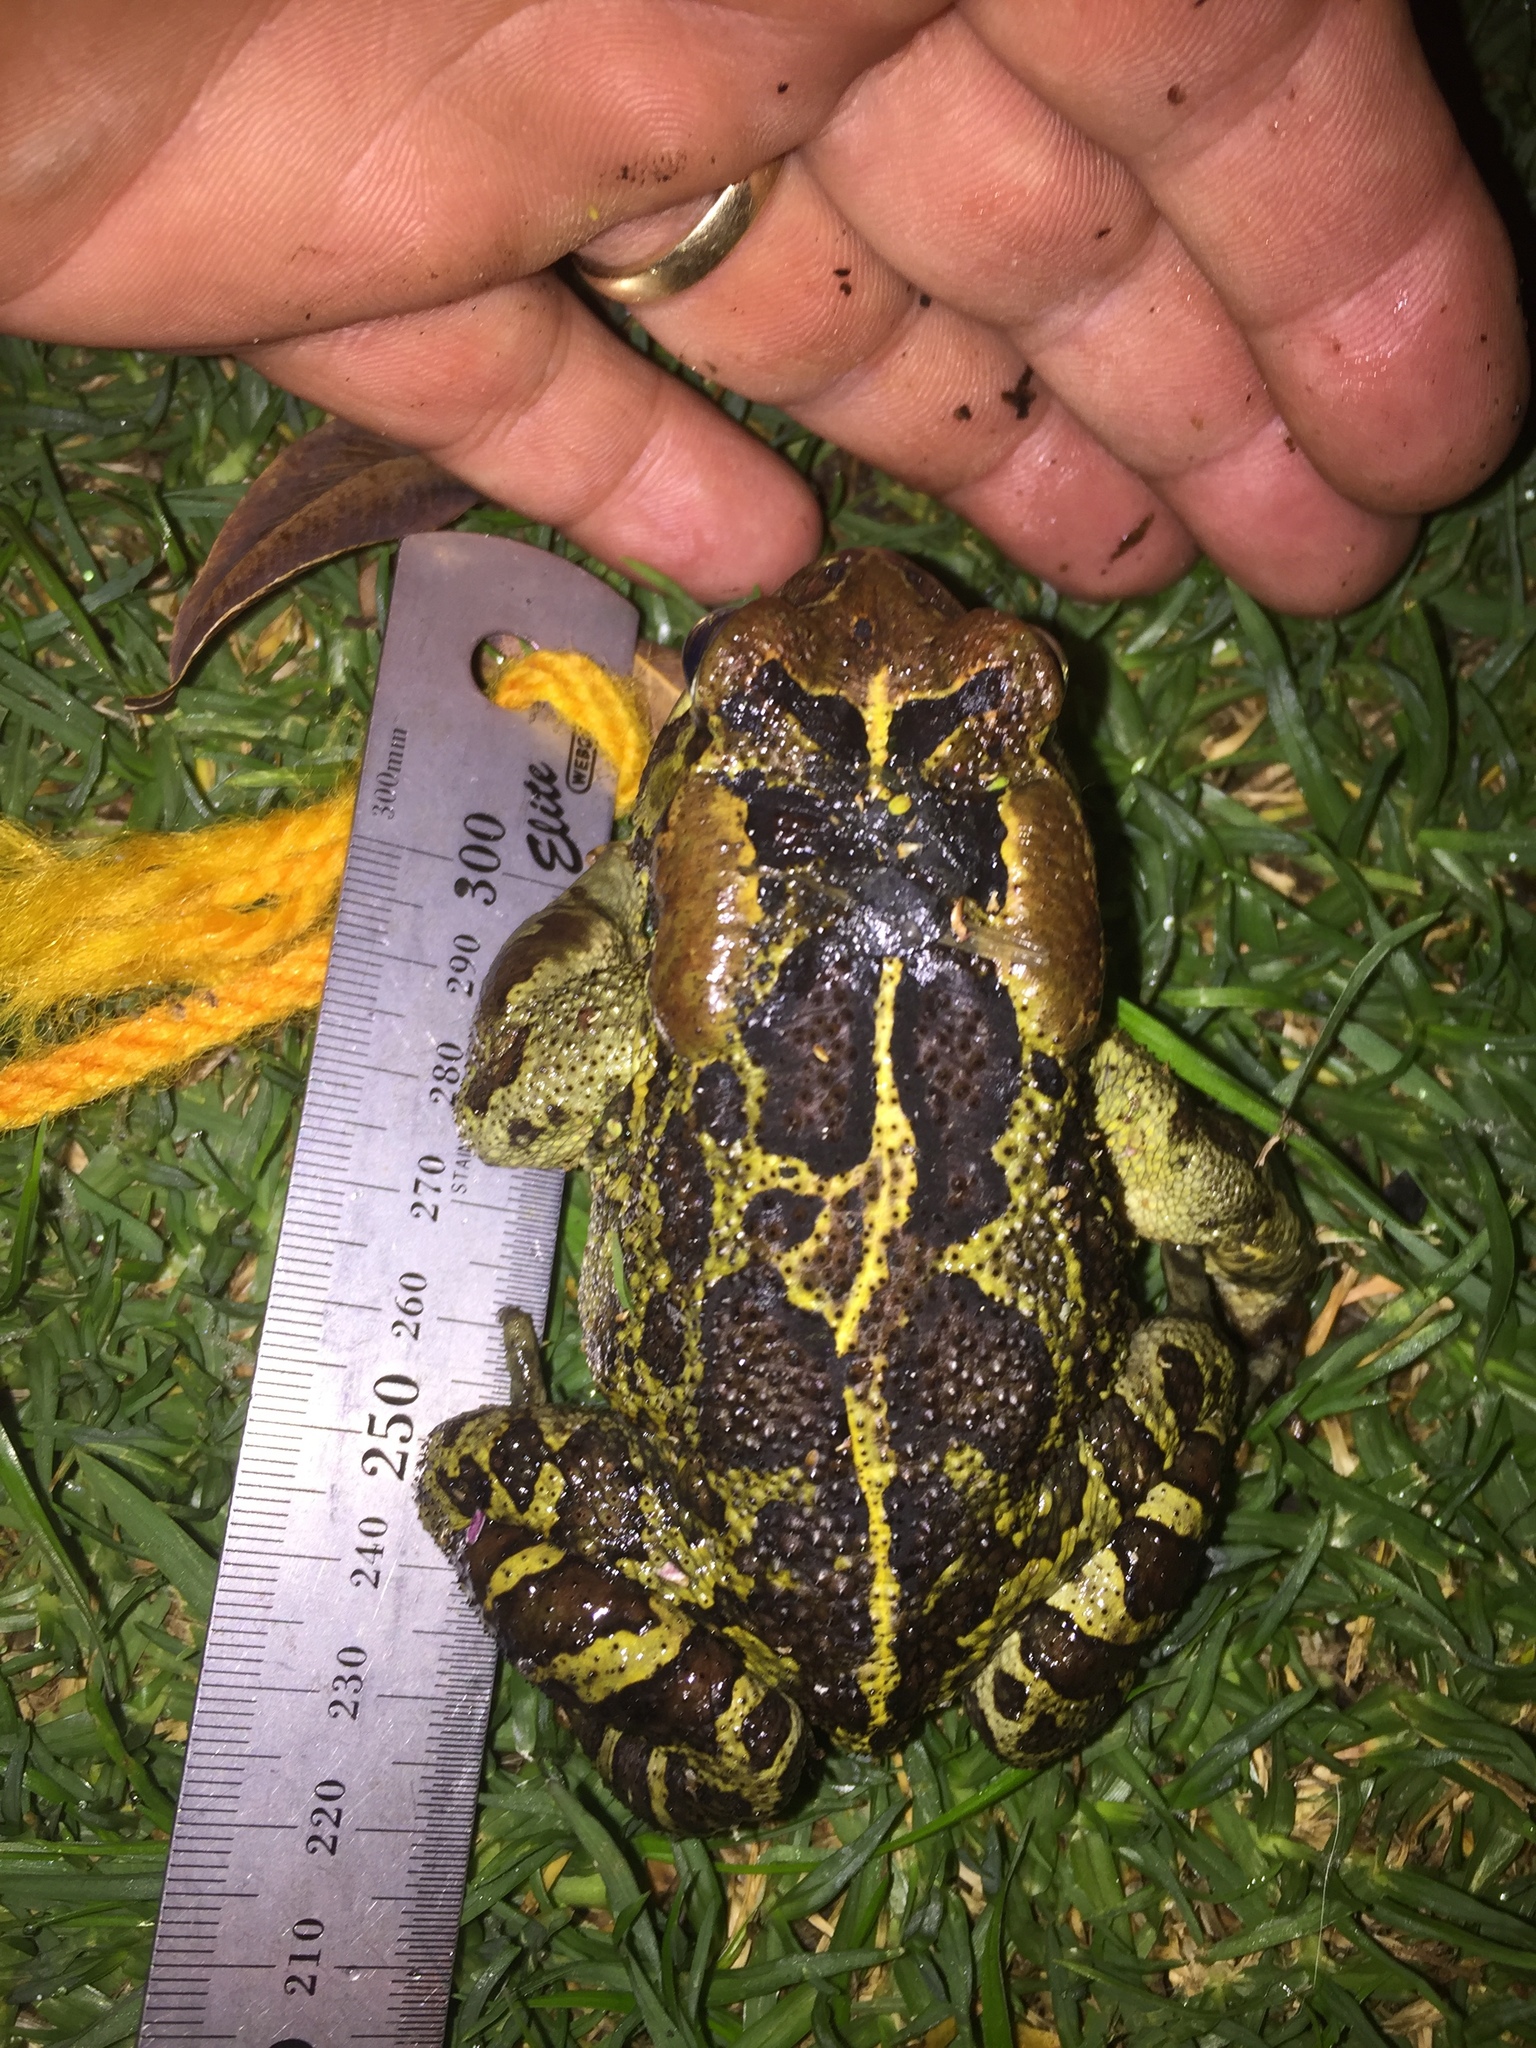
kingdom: Animalia
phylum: Chordata
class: Amphibia
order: Anura
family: Bufonidae
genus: Sclerophrys
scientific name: Sclerophrys pantherina
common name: Panther toad
